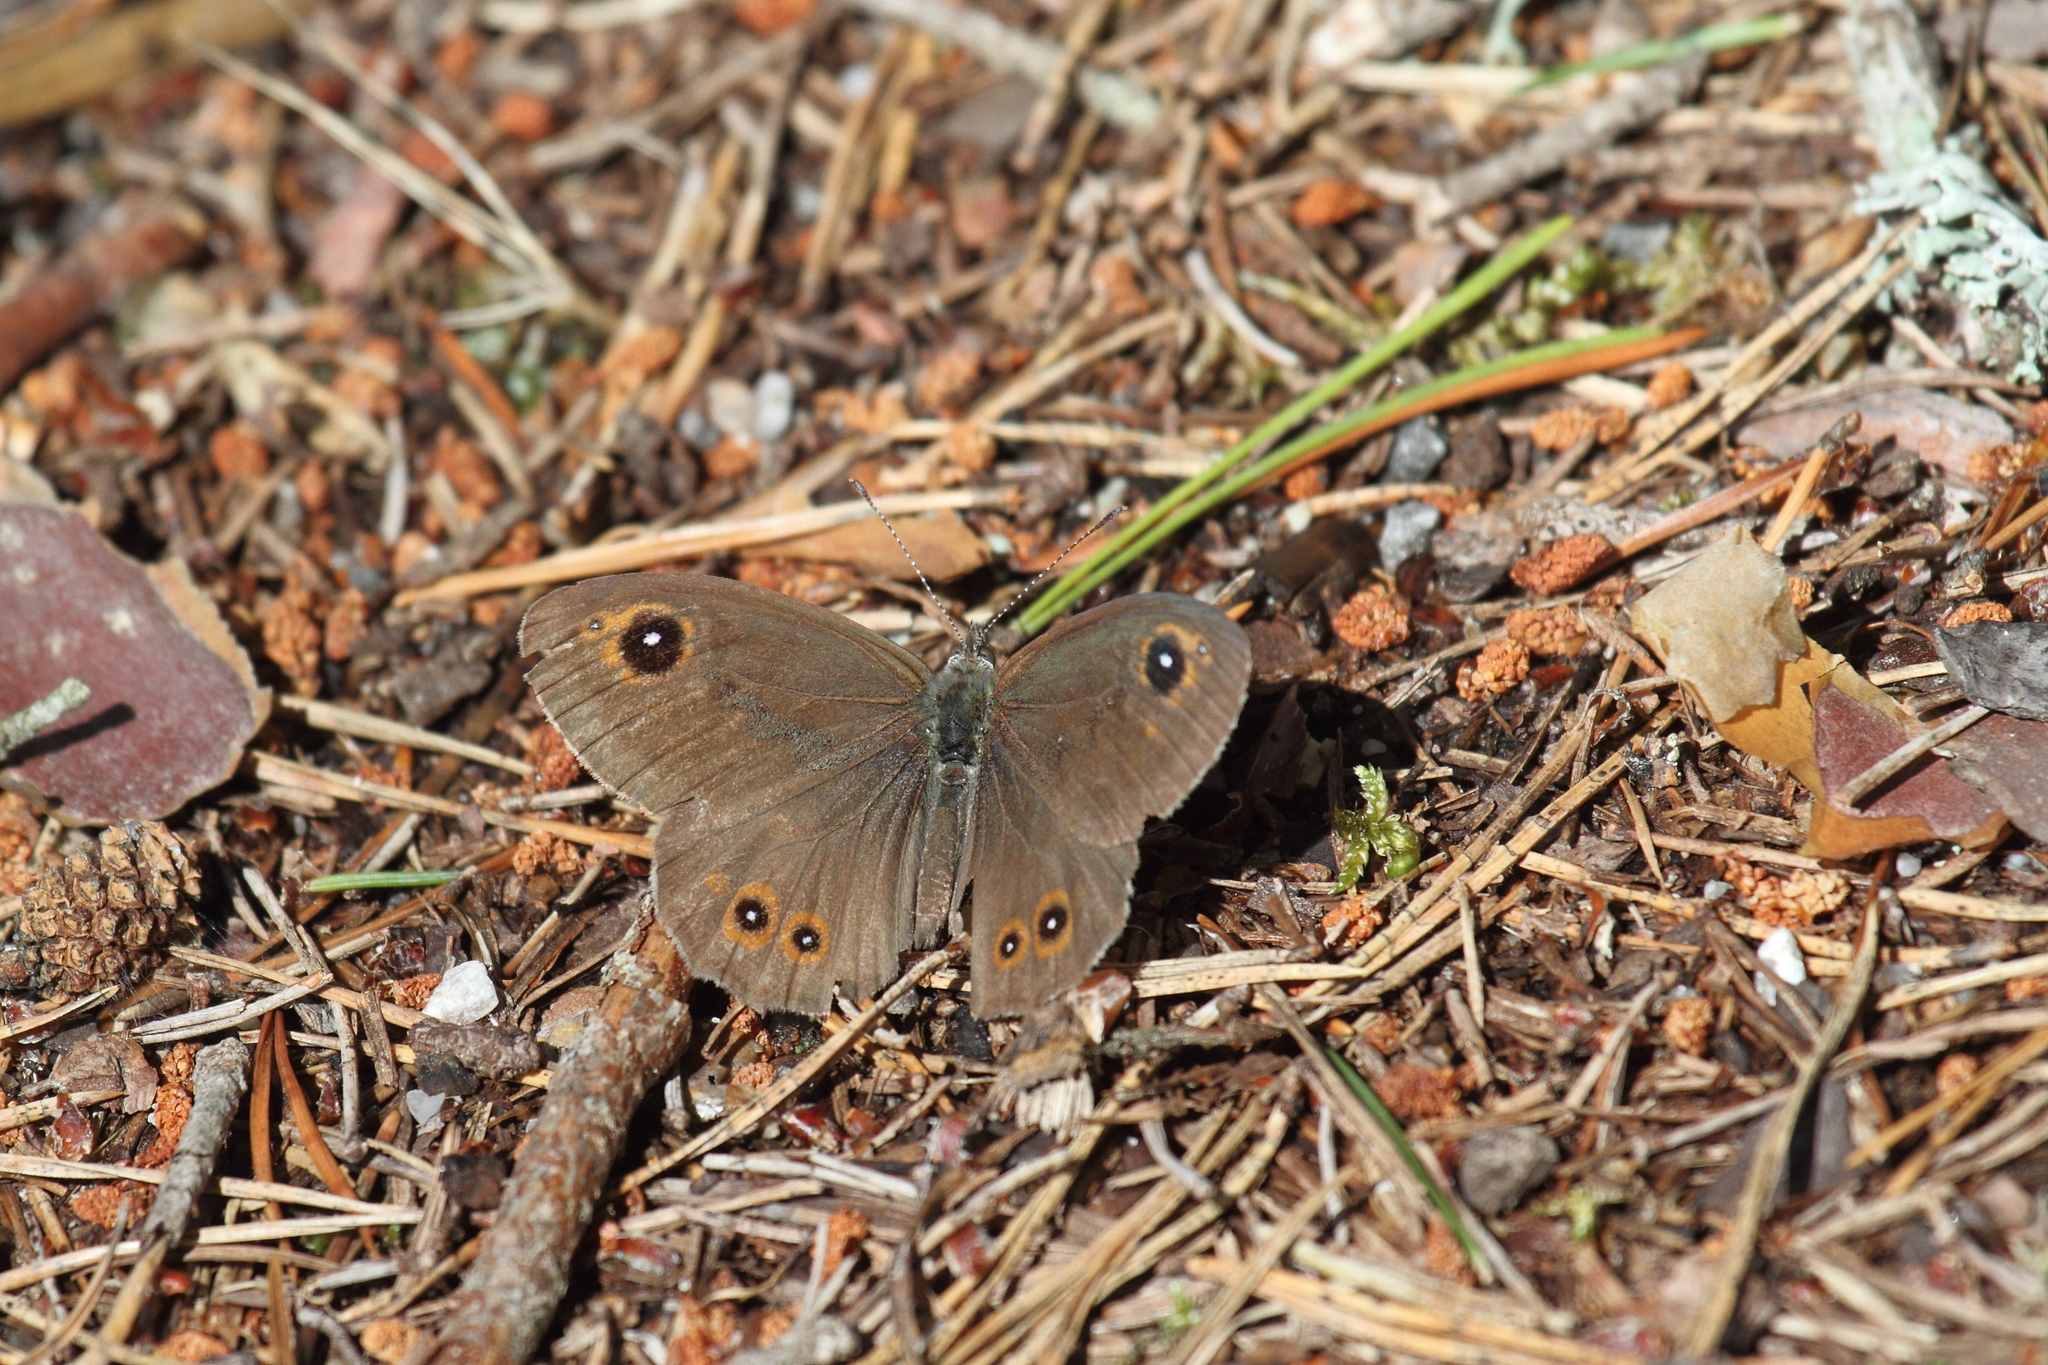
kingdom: Animalia
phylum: Arthropoda
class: Insecta
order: Lepidoptera
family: Nymphalidae
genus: Pararge
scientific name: Pararge Lasiommata maera
